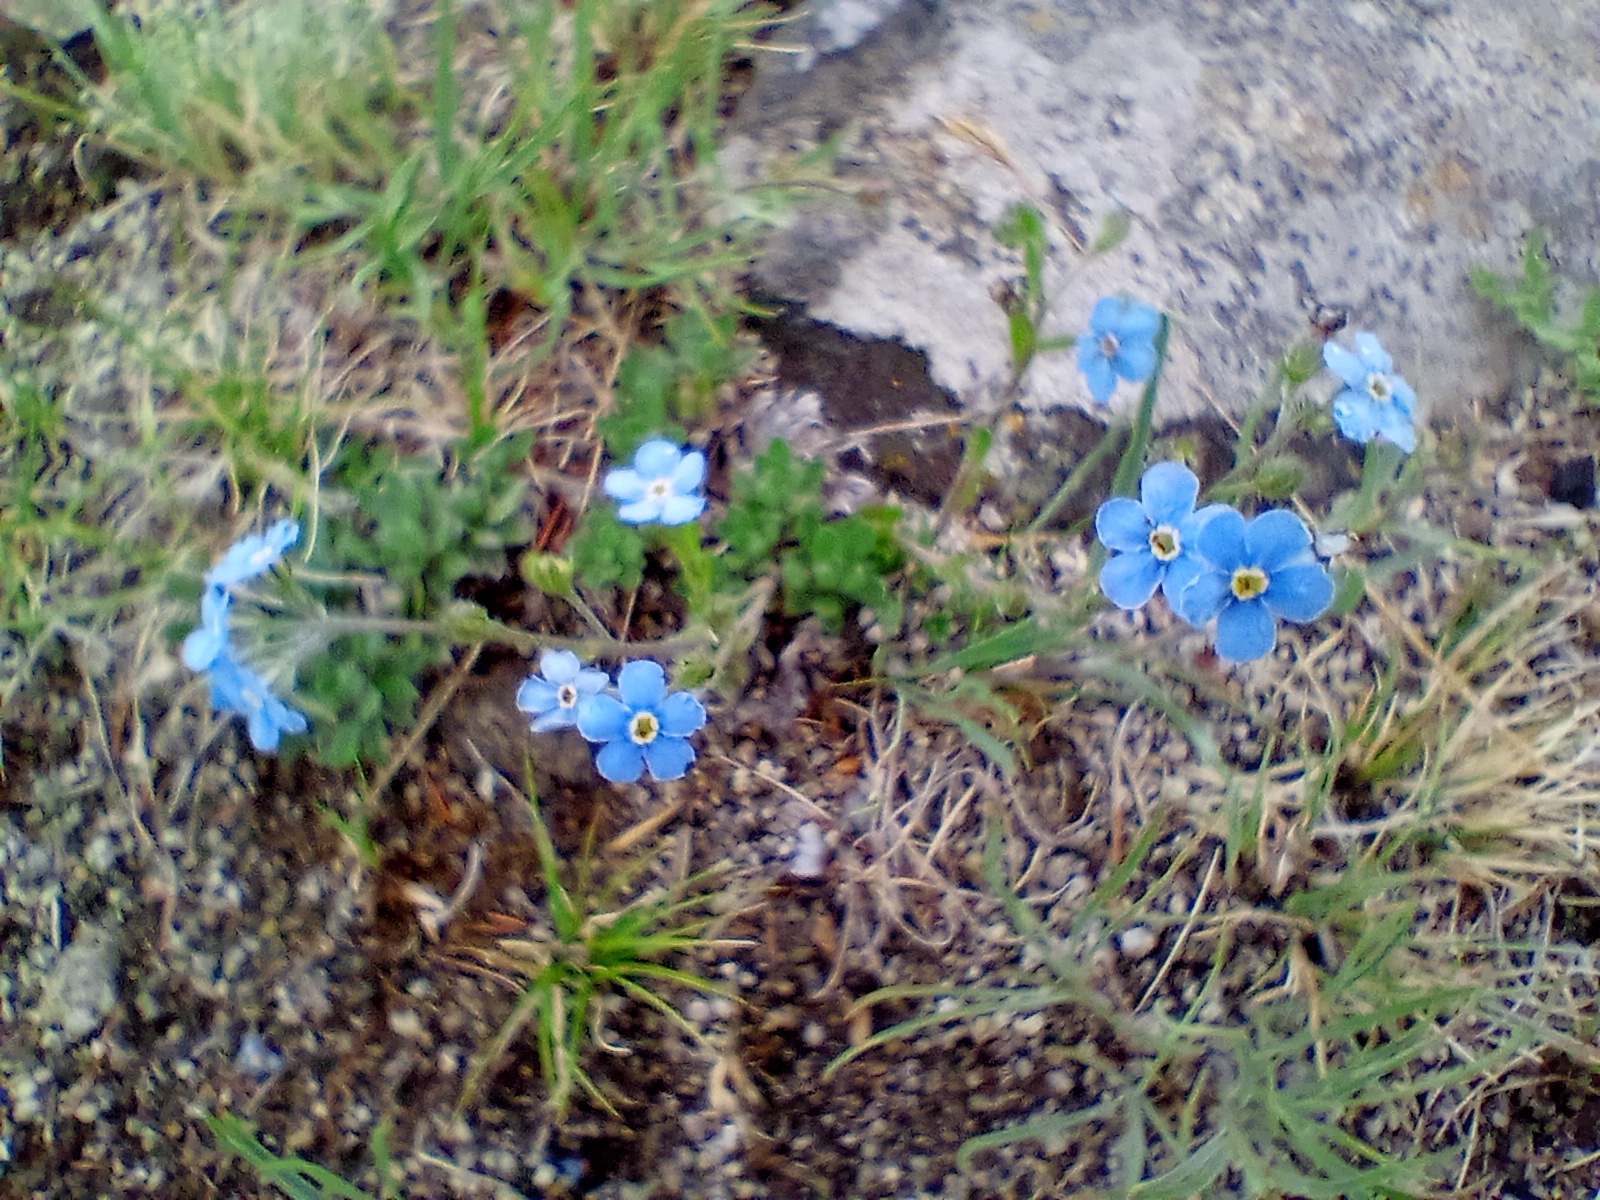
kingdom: Plantae
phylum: Tracheophyta
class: Magnoliopsida
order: Boraginales
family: Boraginaceae
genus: Eritrichium
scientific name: Eritrichium rupestre
